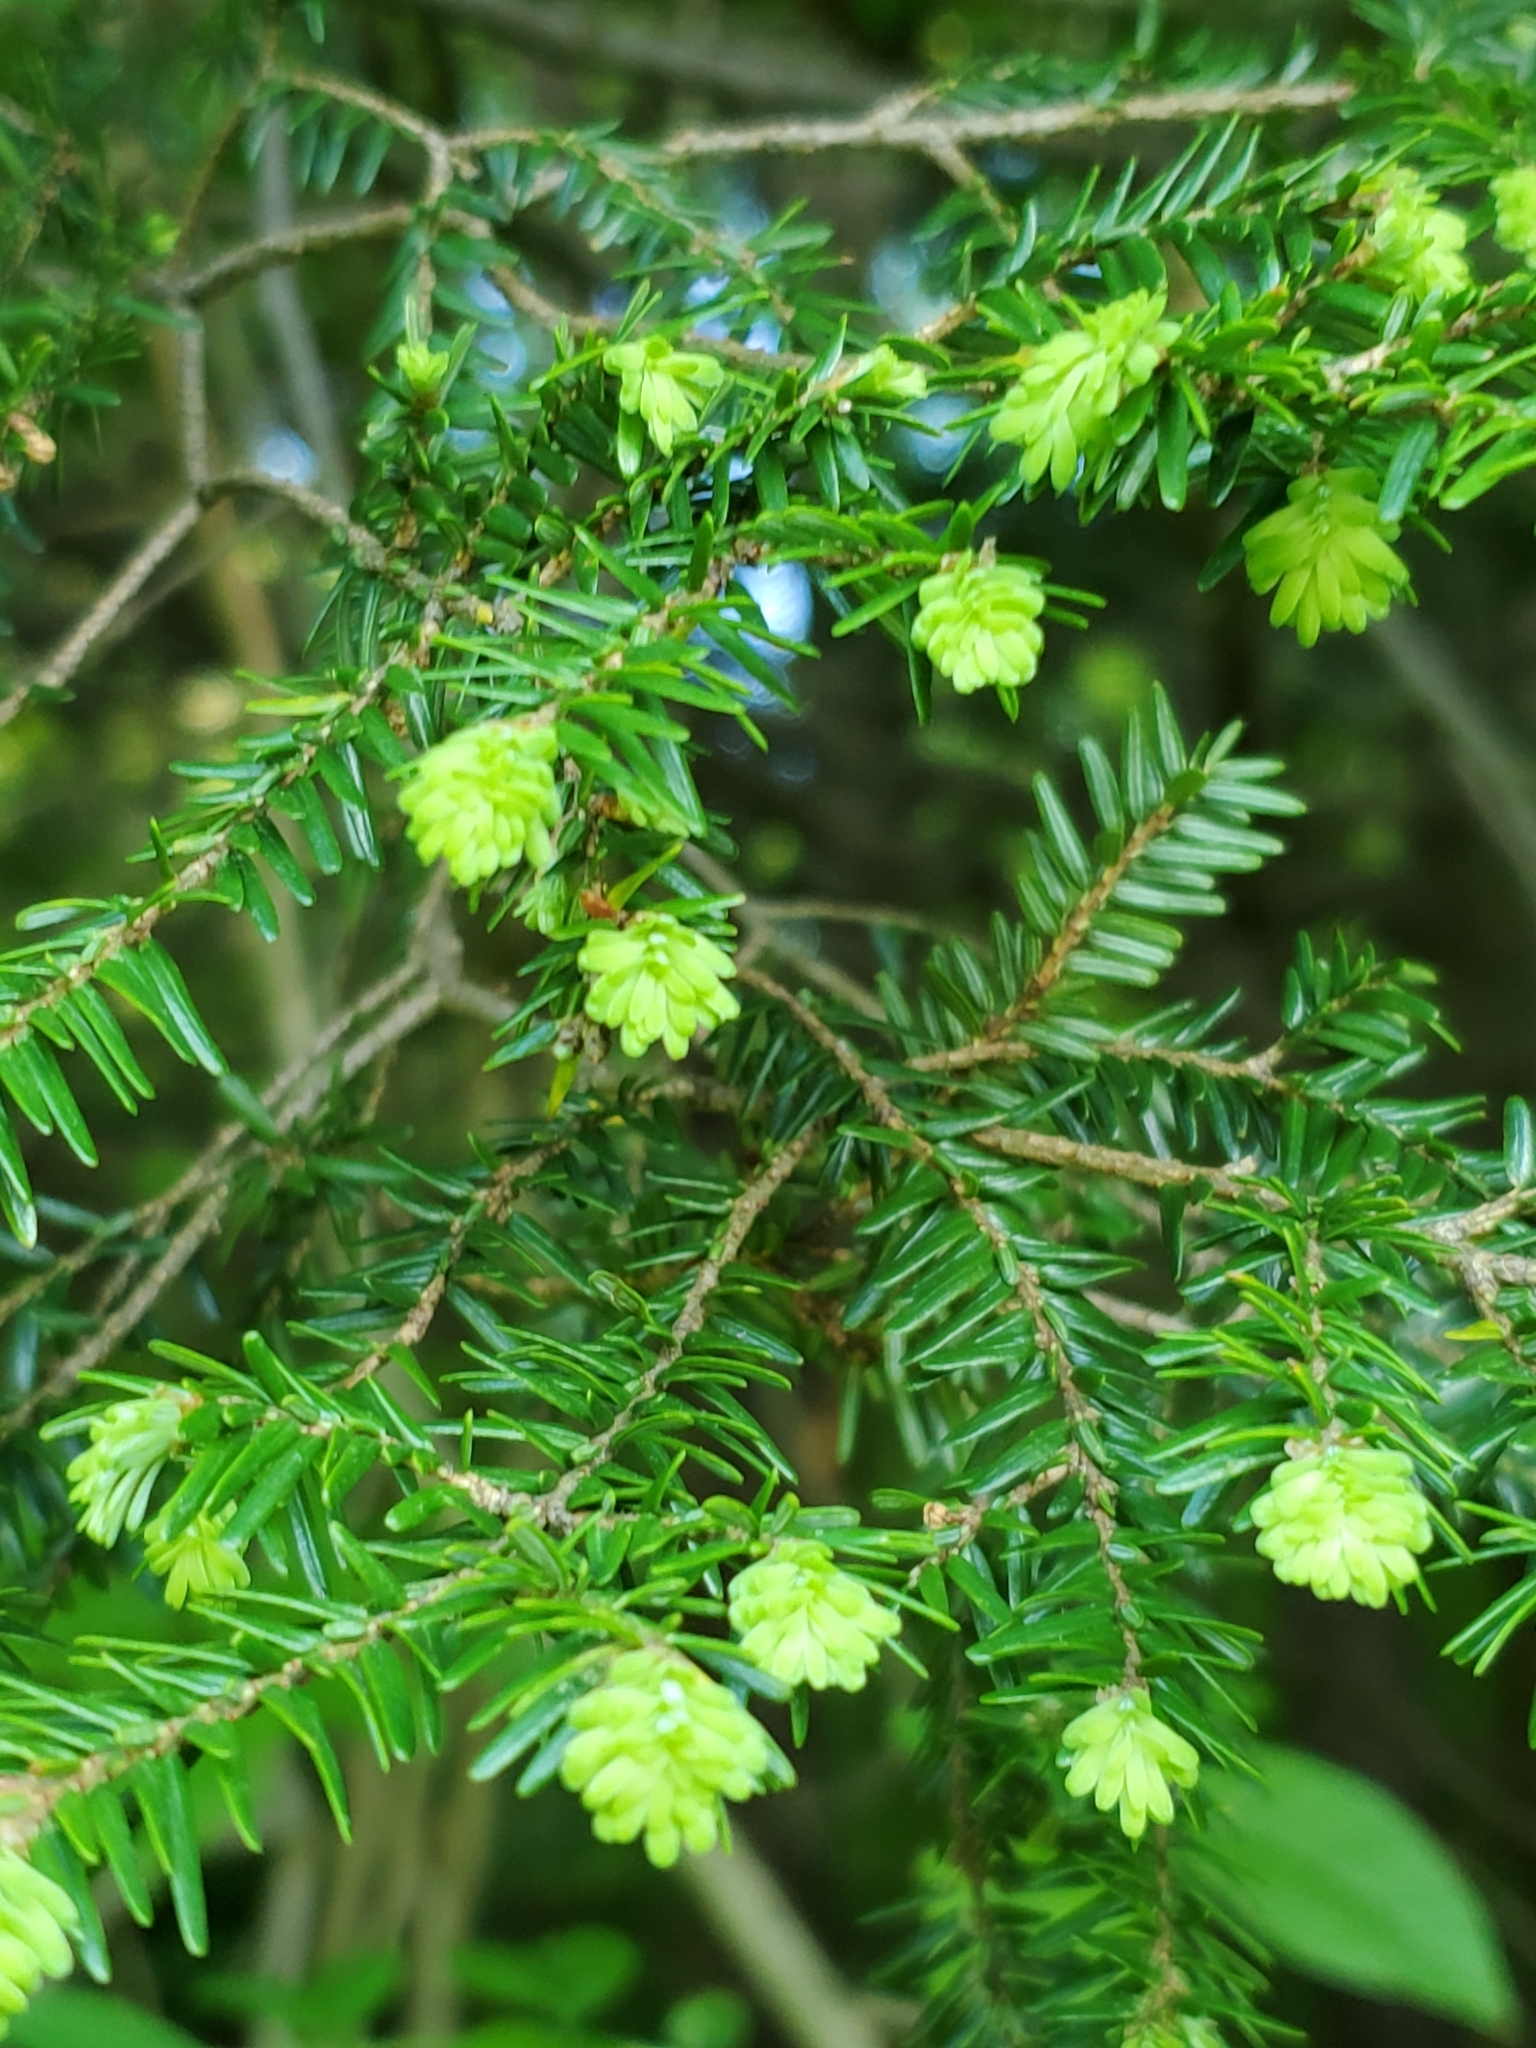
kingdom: Plantae
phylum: Tracheophyta
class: Pinopsida
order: Pinales
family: Pinaceae
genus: Tsuga
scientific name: Tsuga canadensis
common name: Eastern hemlock
